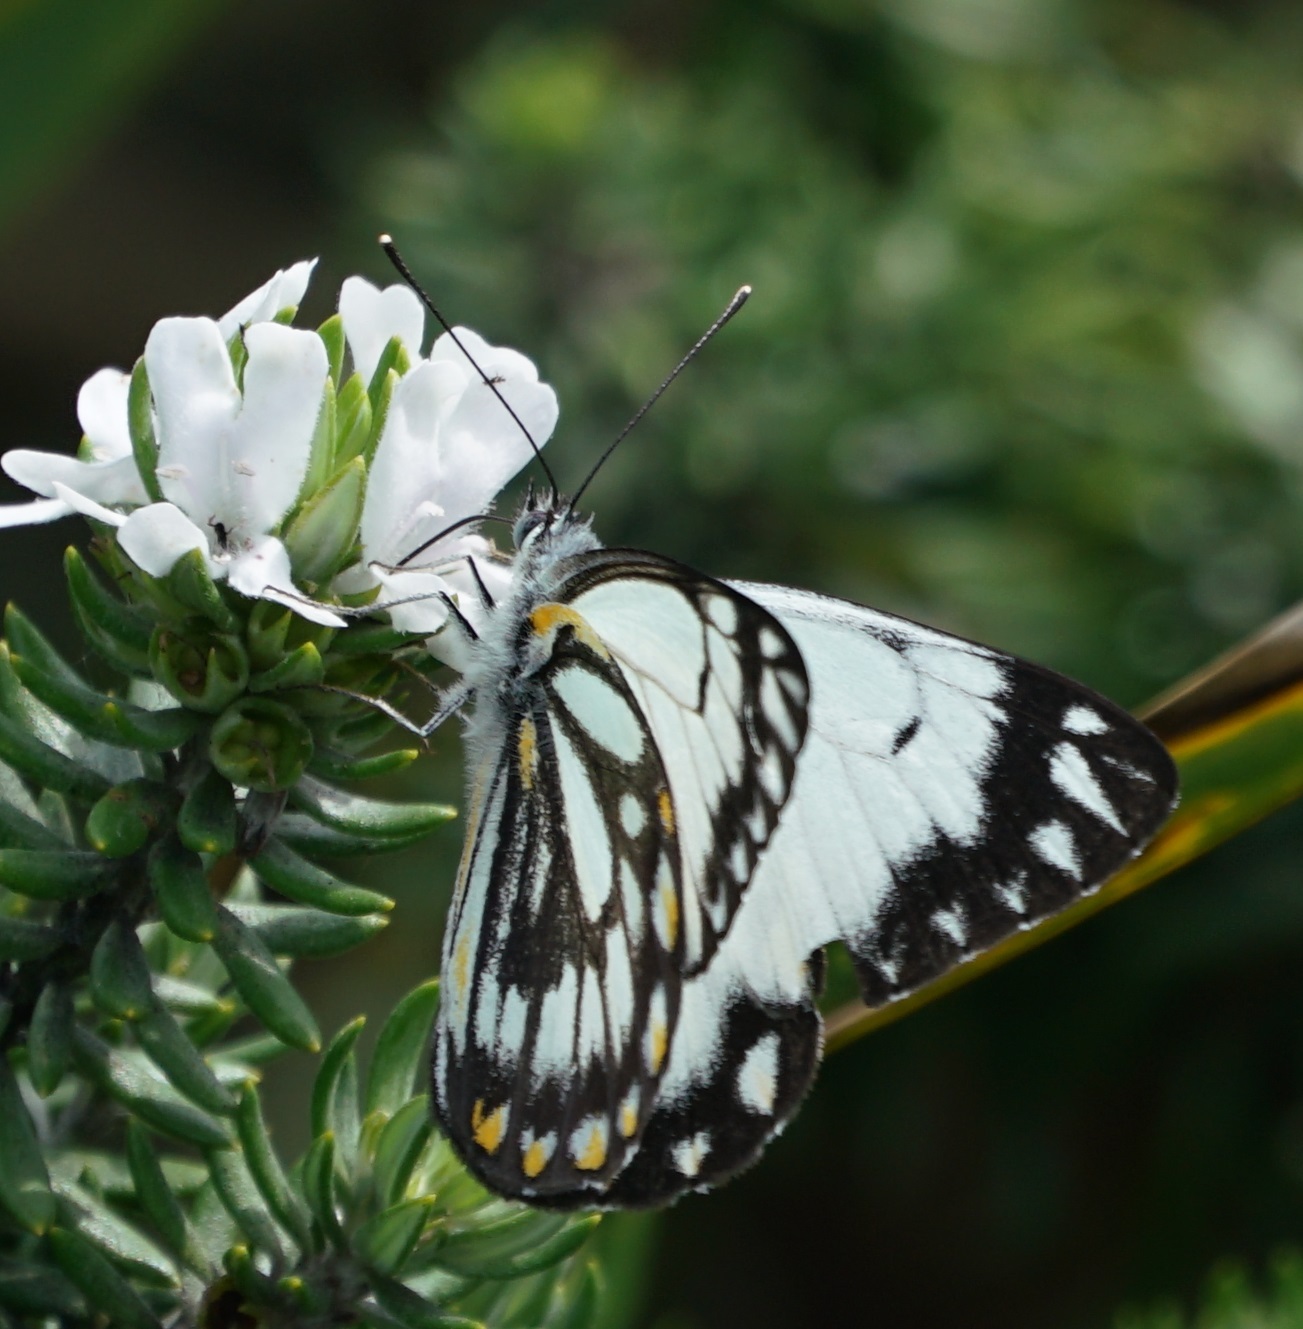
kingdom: Animalia
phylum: Arthropoda
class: Insecta
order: Lepidoptera
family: Pieridae
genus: Belenois
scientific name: Belenois java
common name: Caper white
